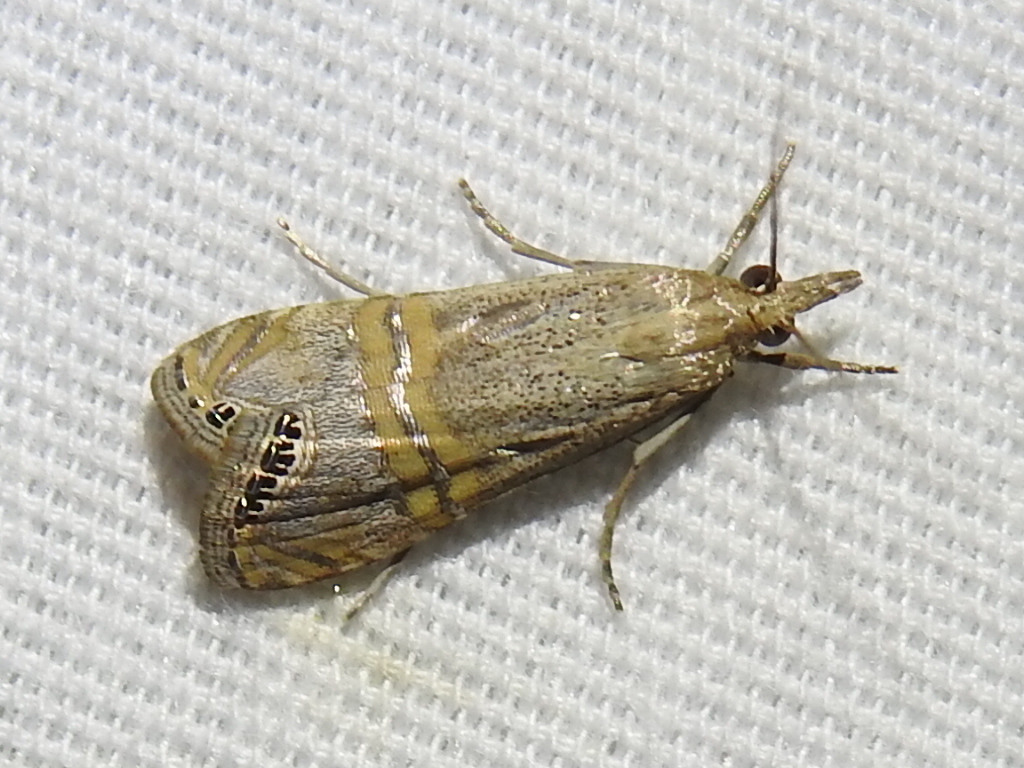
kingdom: Animalia
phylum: Arthropoda
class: Insecta
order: Lepidoptera
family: Crambidae
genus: Euchromius
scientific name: Euchromius ocellea
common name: Necklace veneer moth
